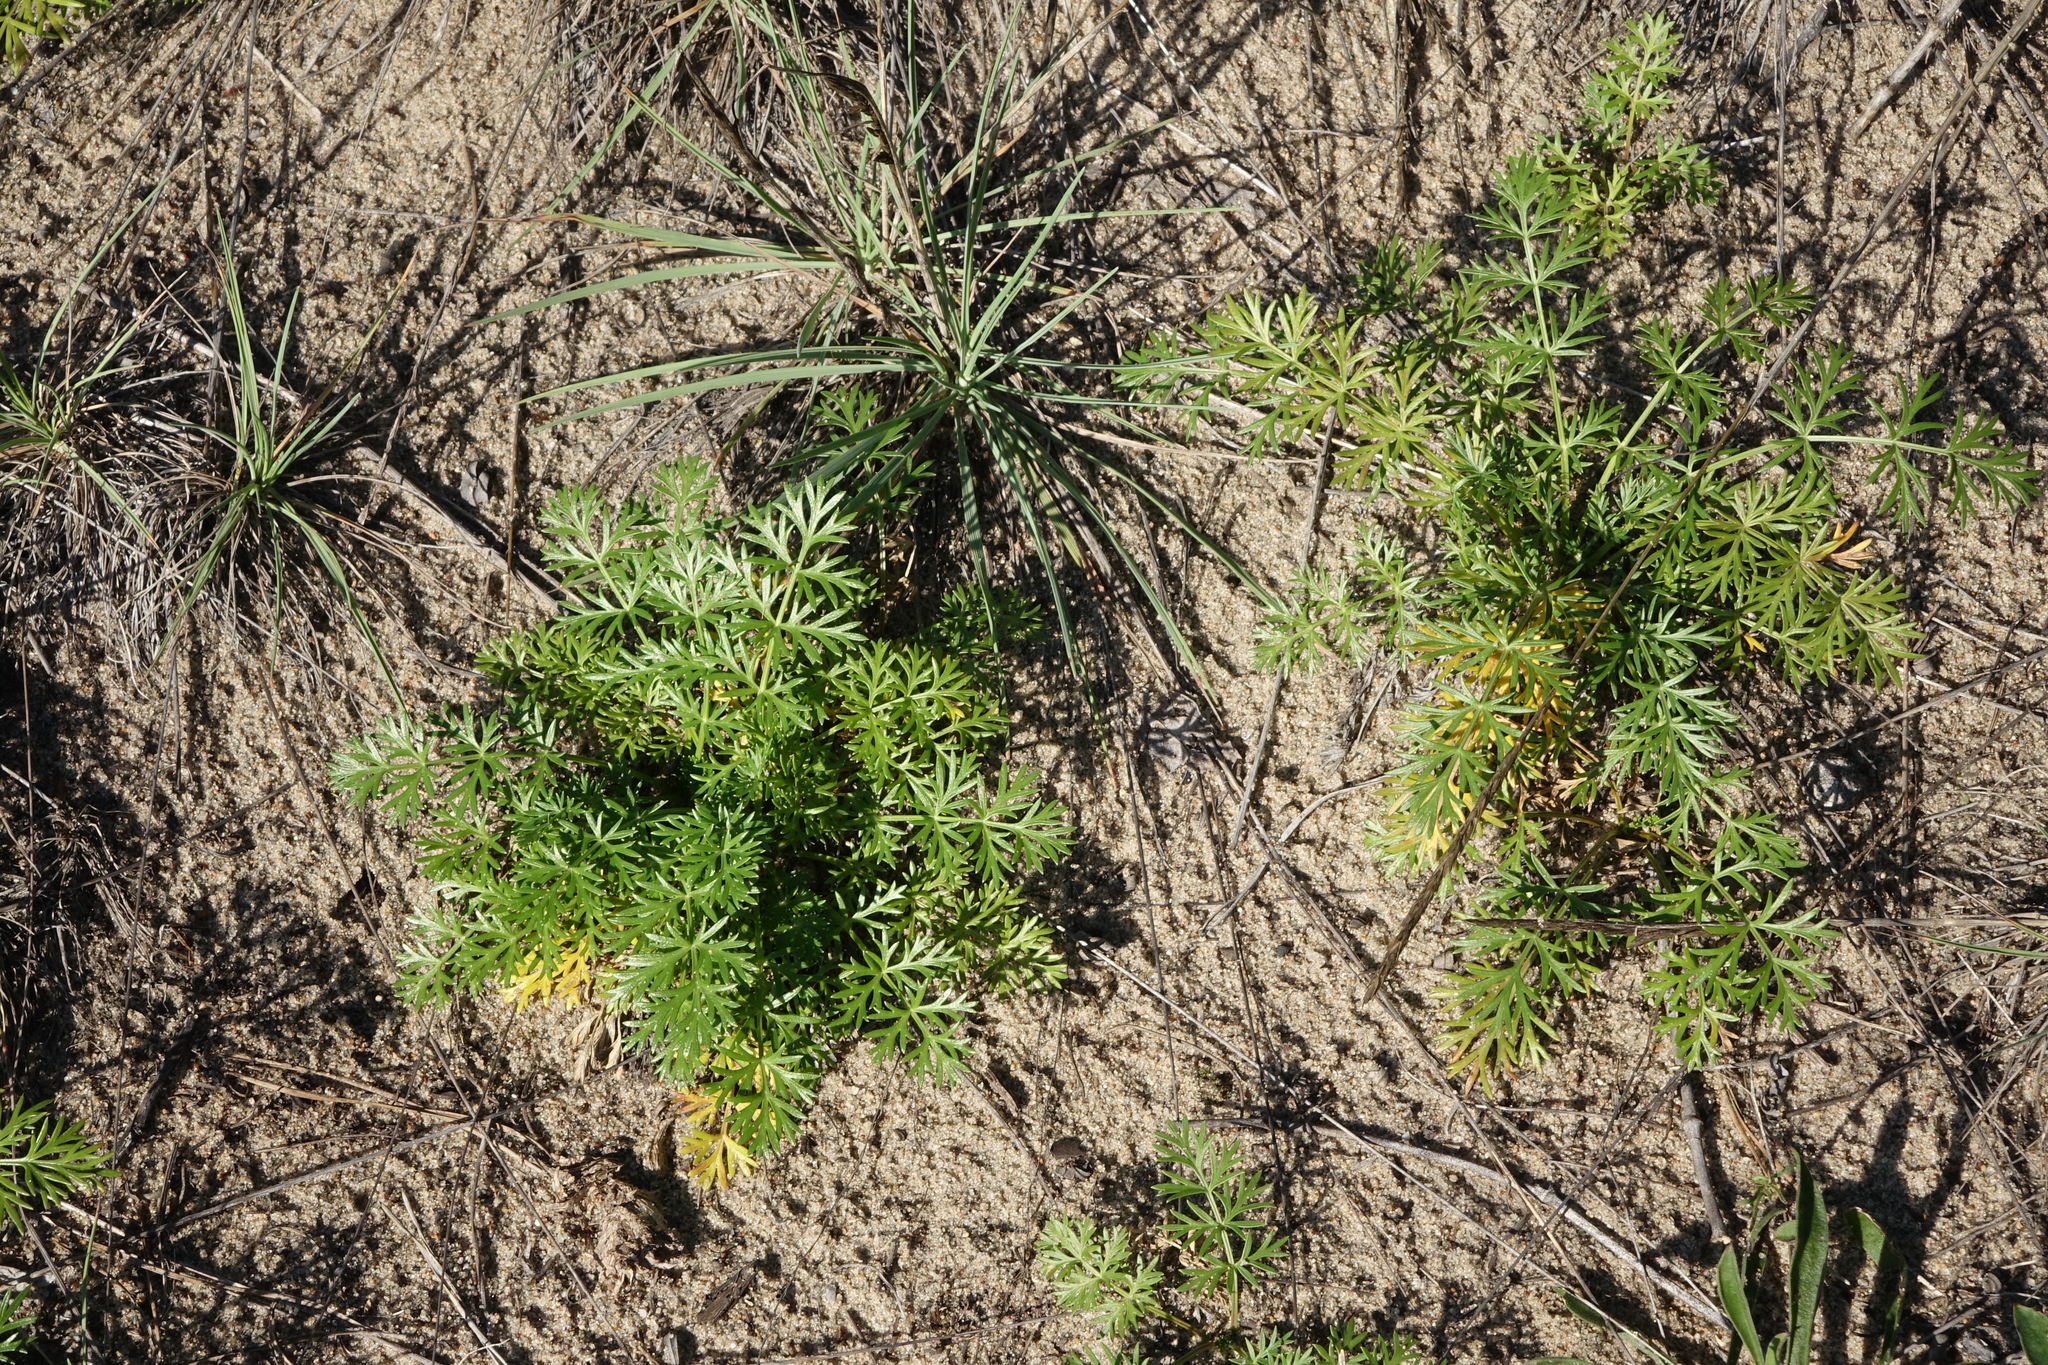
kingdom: Plantae
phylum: Tracheophyta
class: Magnoliopsida
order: Apiales
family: Apiaceae
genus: Kitagawia
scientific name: Kitagawia baicalensis
